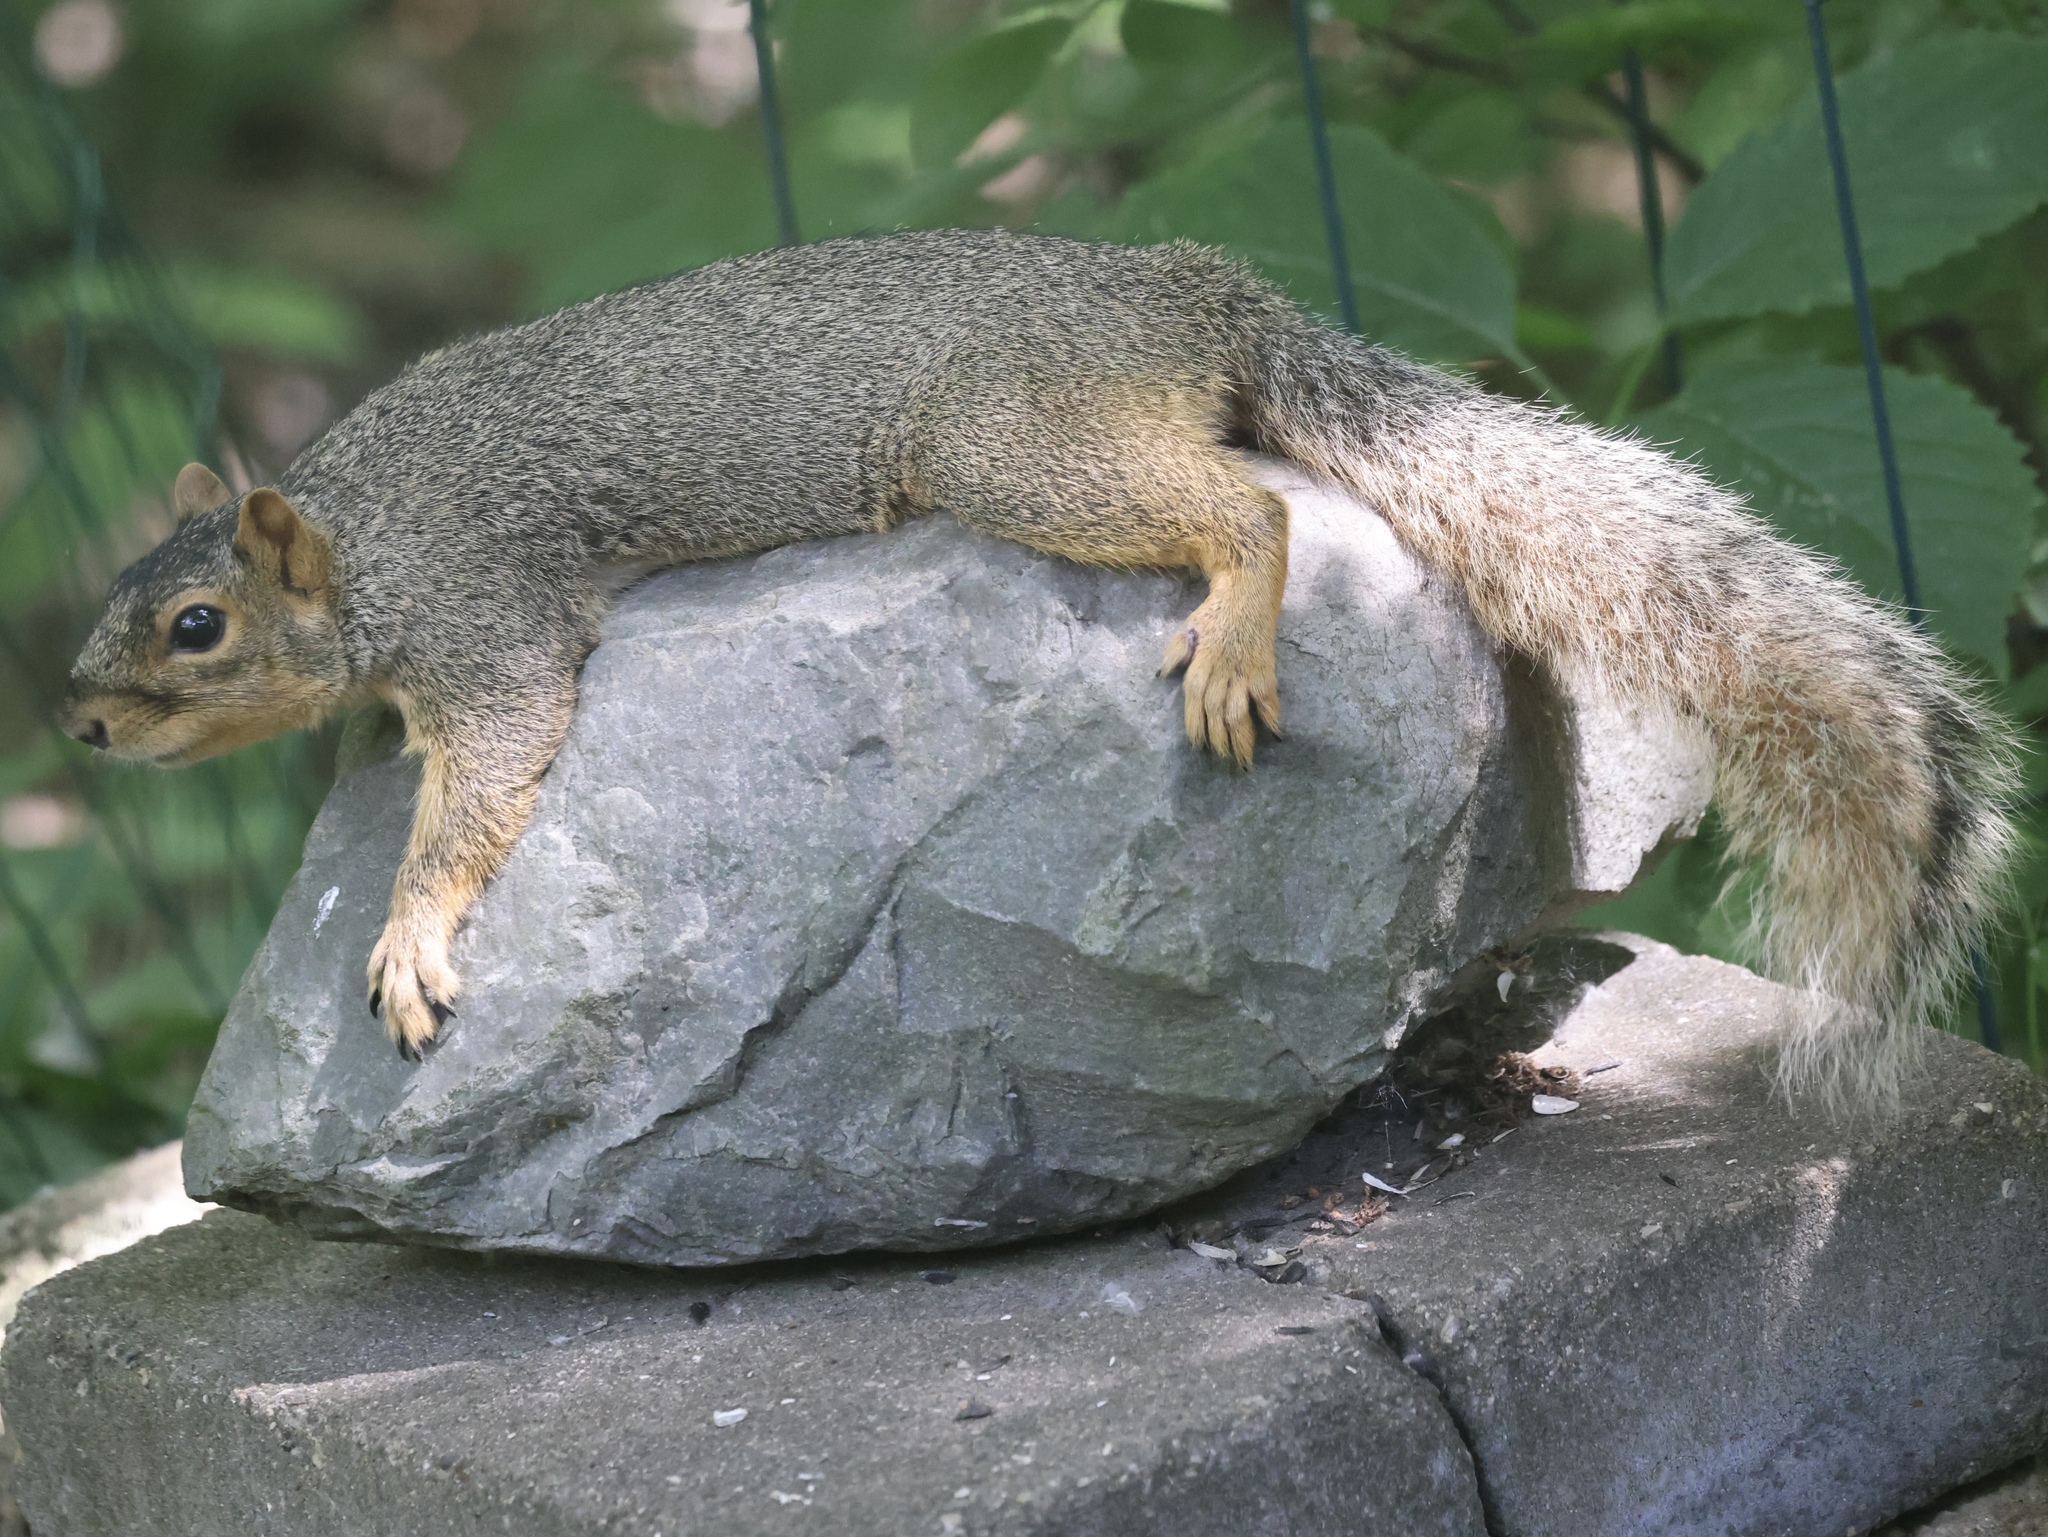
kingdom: Animalia
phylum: Chordata
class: Mammalia
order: Rodentia
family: Sciuridae
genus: Sciurus
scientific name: Sciurus niger
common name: Fox squirrel
